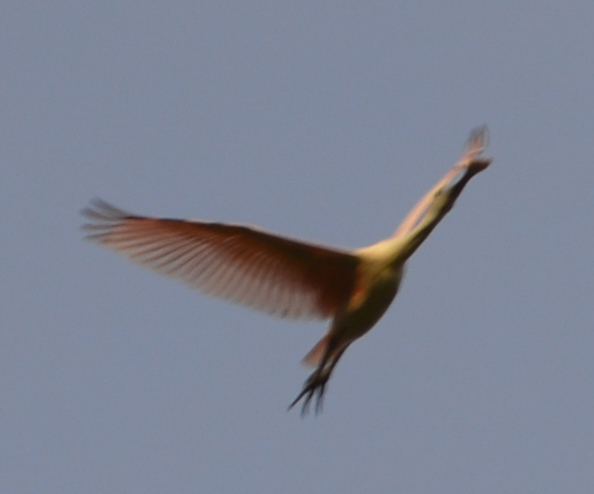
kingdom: Animalia
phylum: Chordata
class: Aves
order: Pelecaniformes
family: Threskiornithidae
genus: Platalea
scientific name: Platalea ajaja
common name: Roseate spoonbill
